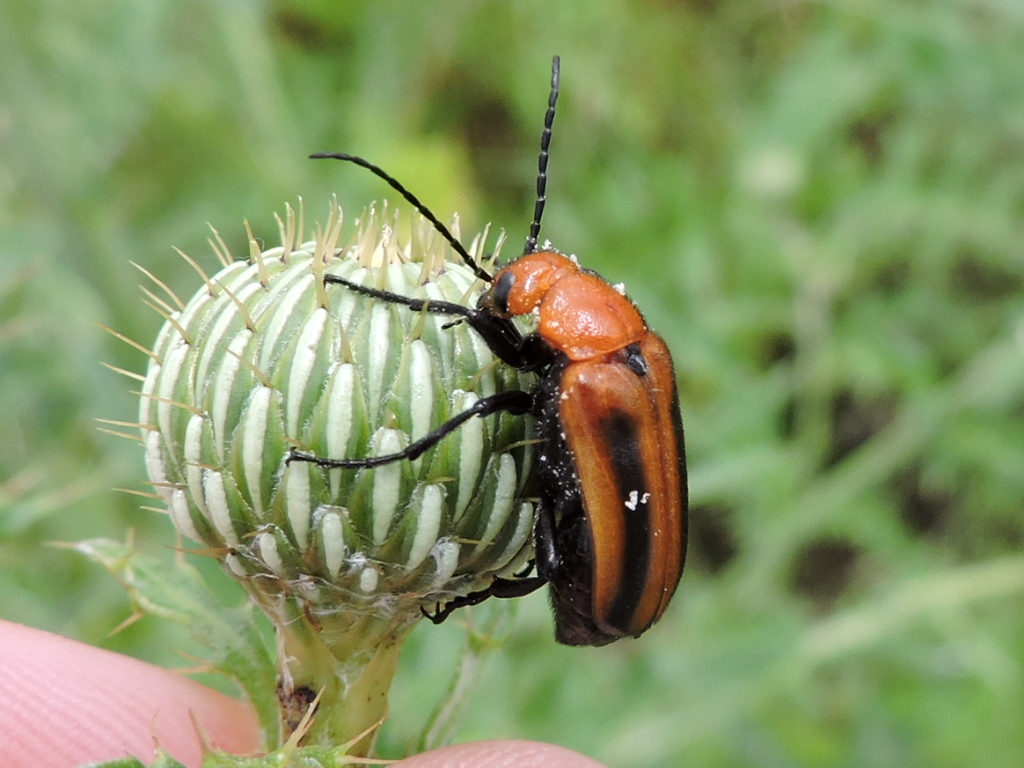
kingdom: Animalia
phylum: Arthropoda
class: Insecta
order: Coleoptera
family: Meloidae
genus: Nemognatha
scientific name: Nemognatha piazata
